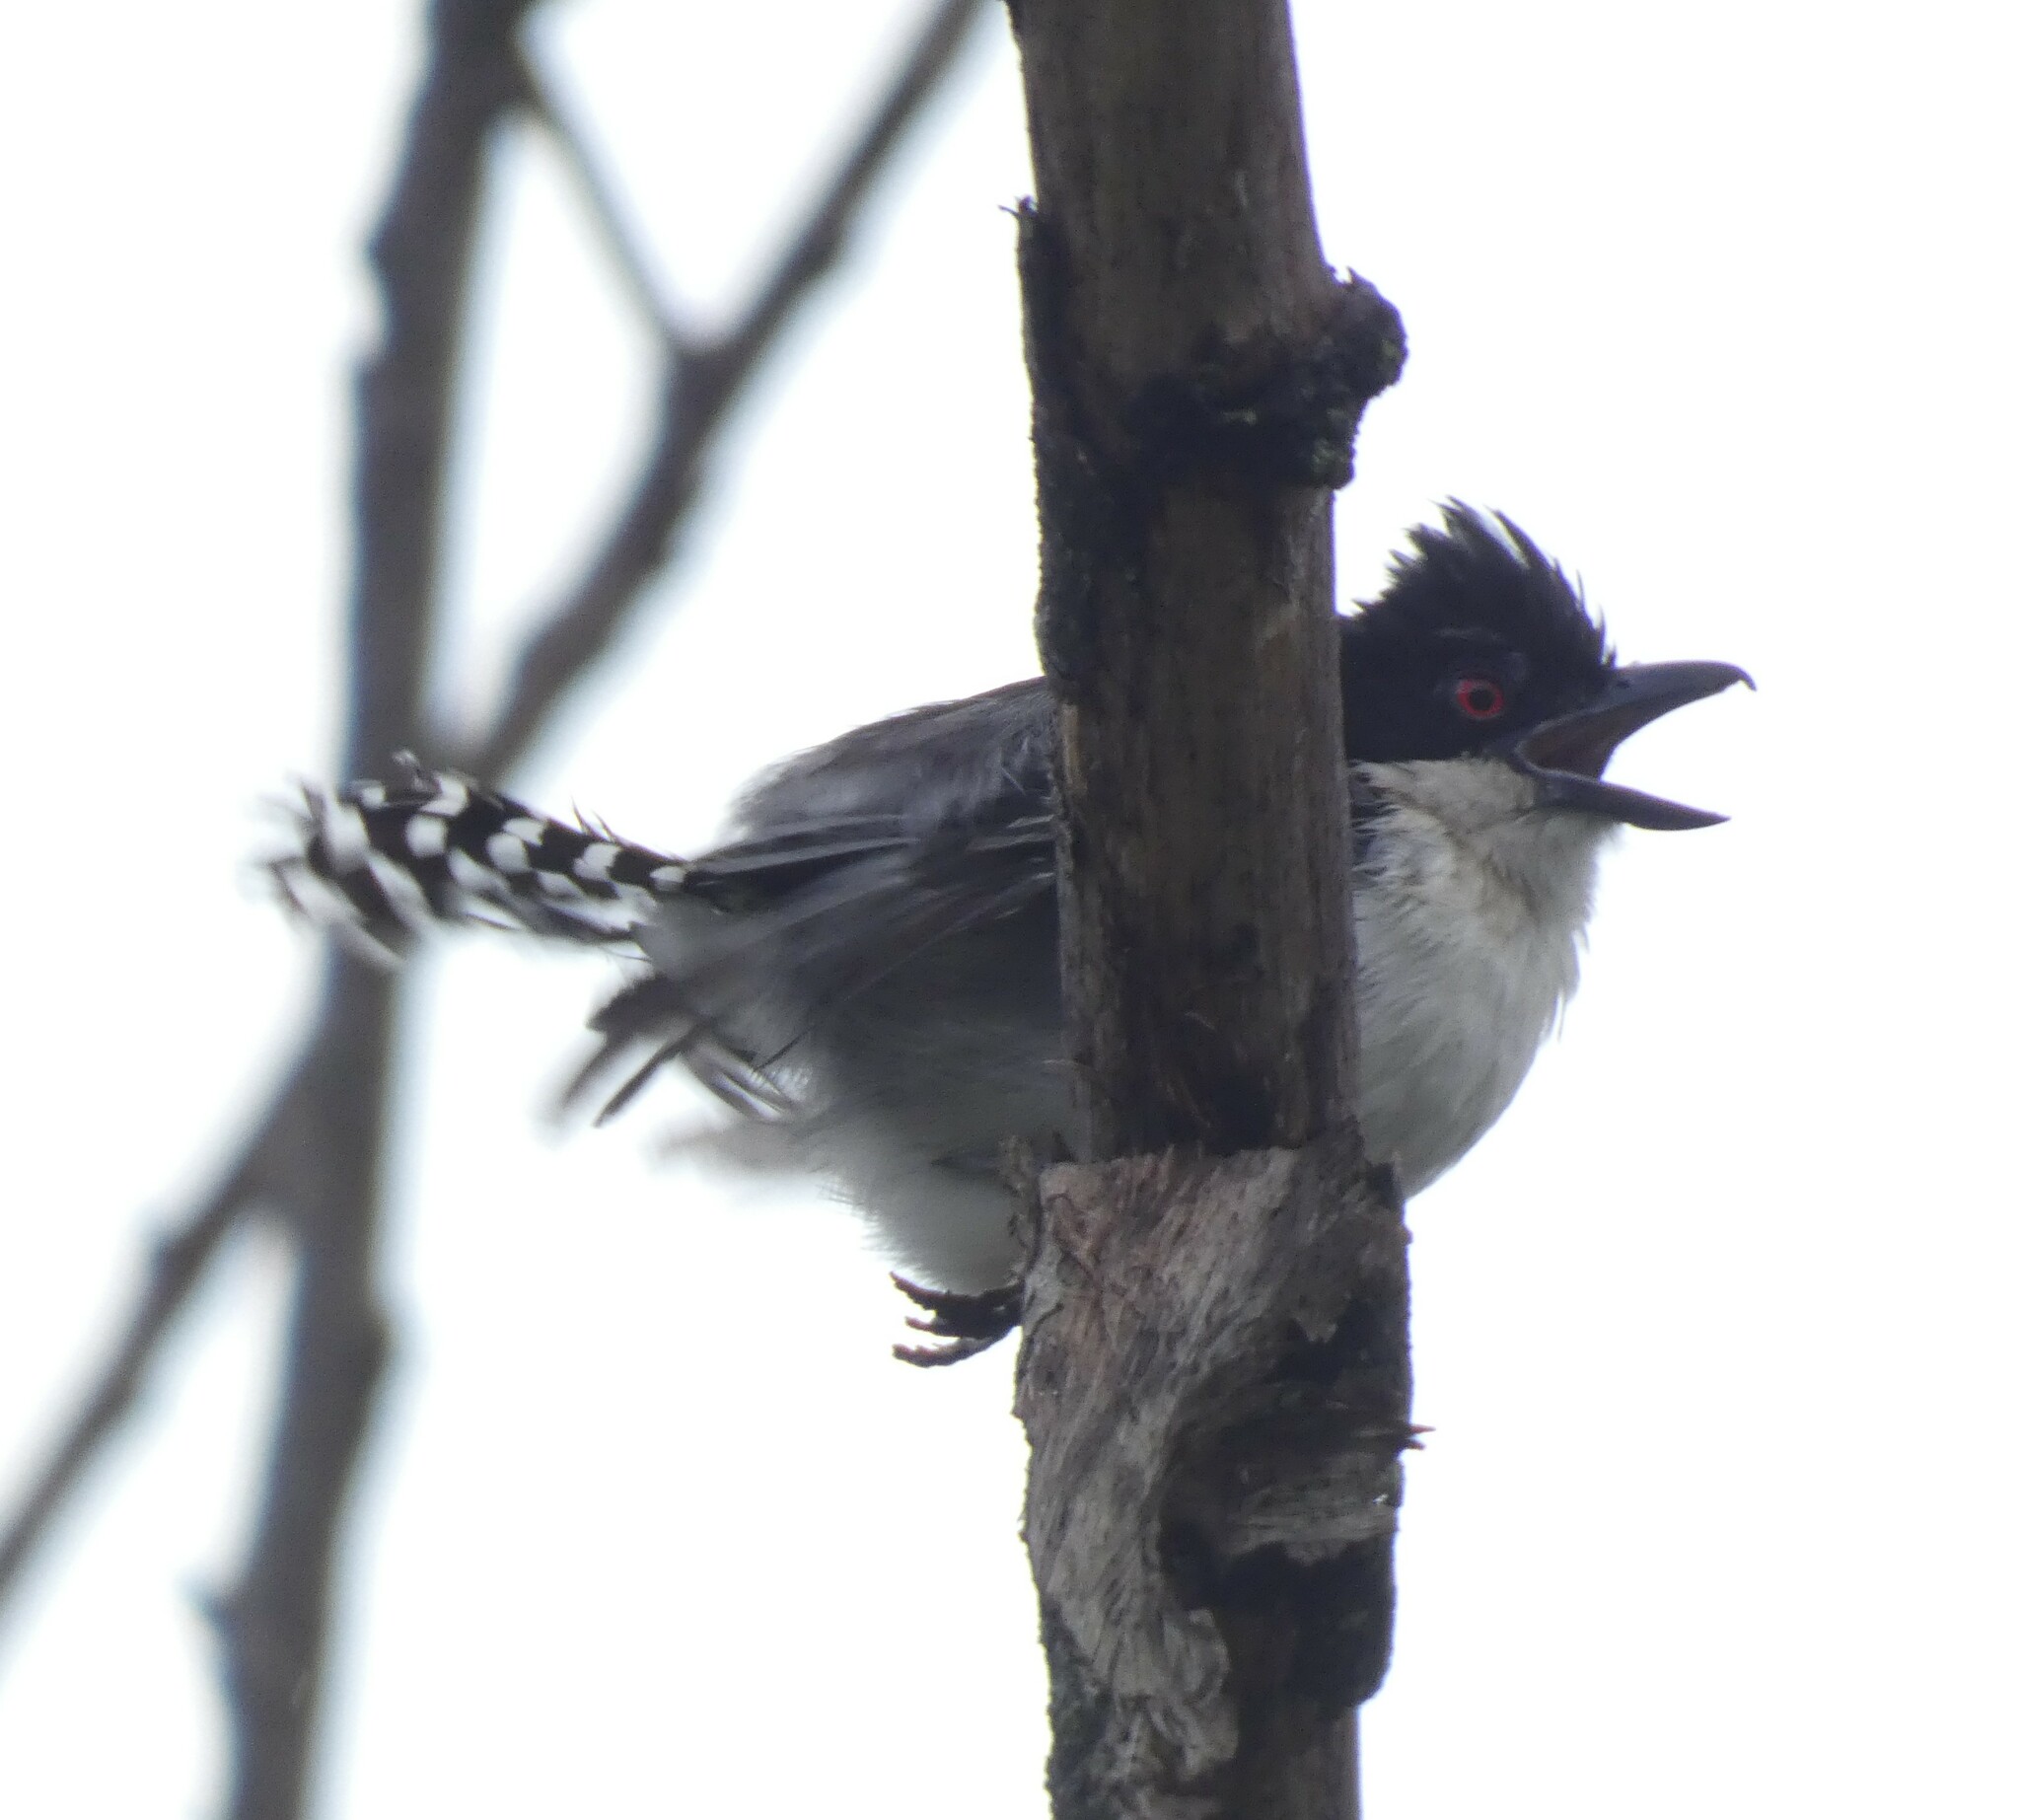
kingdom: Animalia
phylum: Chordata
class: Aves
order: Passeriformes
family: Thamnophilidae
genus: Taraba
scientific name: Taraba major
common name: Great antshrike
